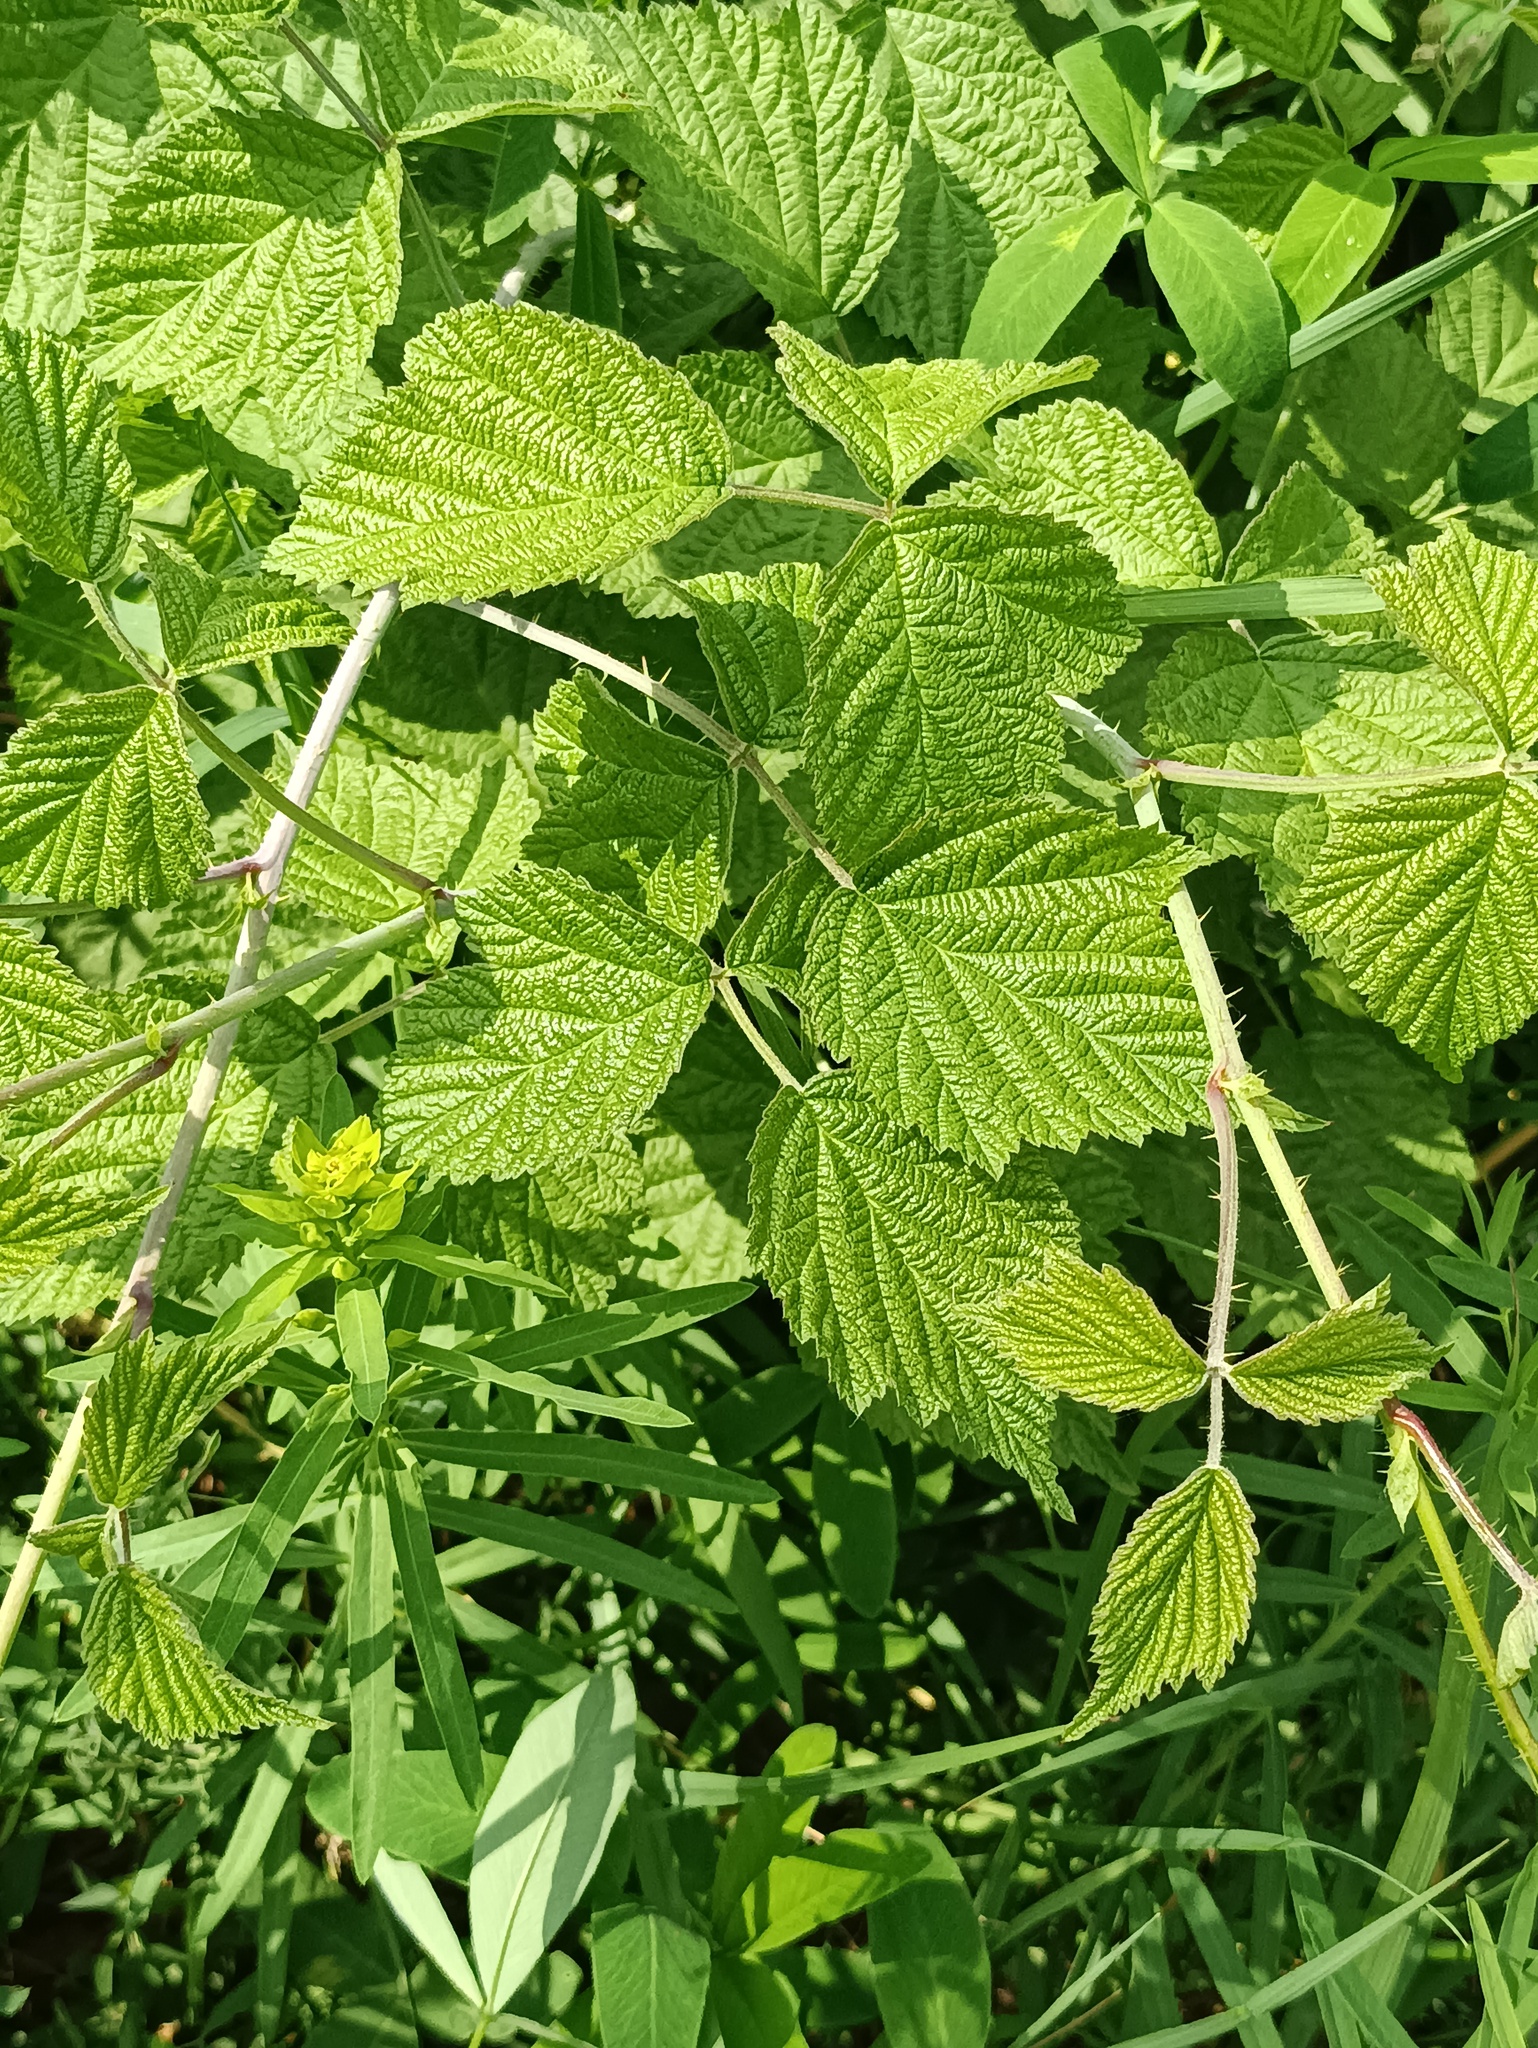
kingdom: Plantae
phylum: Tracheophyta
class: Magnoliopsida
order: Rosales
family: Rosaceae
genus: Rubus
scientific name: Rubus caesius
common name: Dewberry
